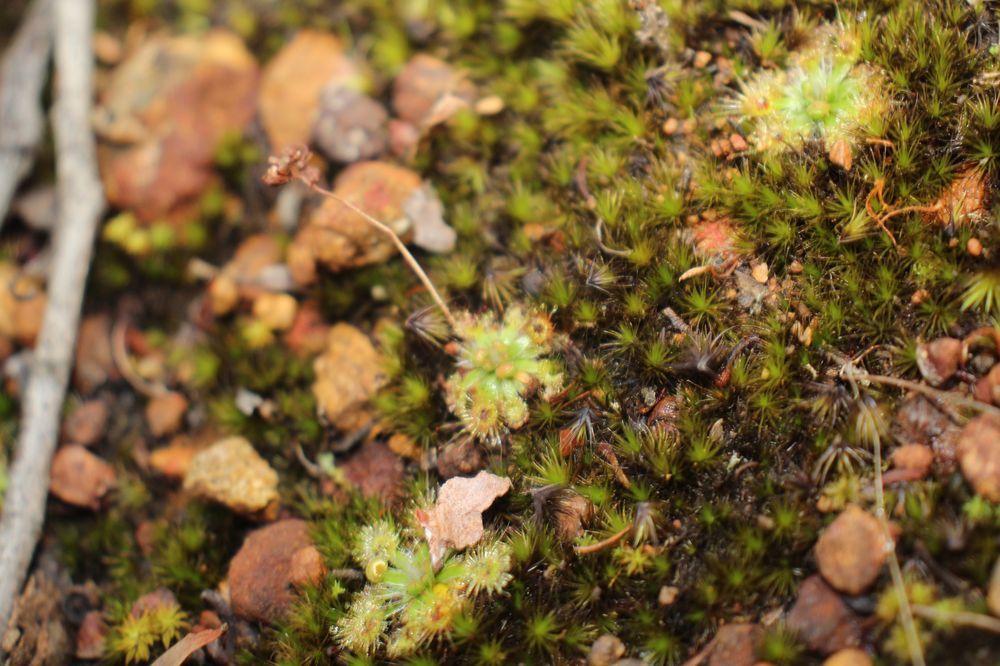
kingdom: Plantae
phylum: Tracheophyta
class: Magnoliopsida
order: Caryophyllales
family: Droseraceae
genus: Drosera
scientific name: Drosera platystigma
